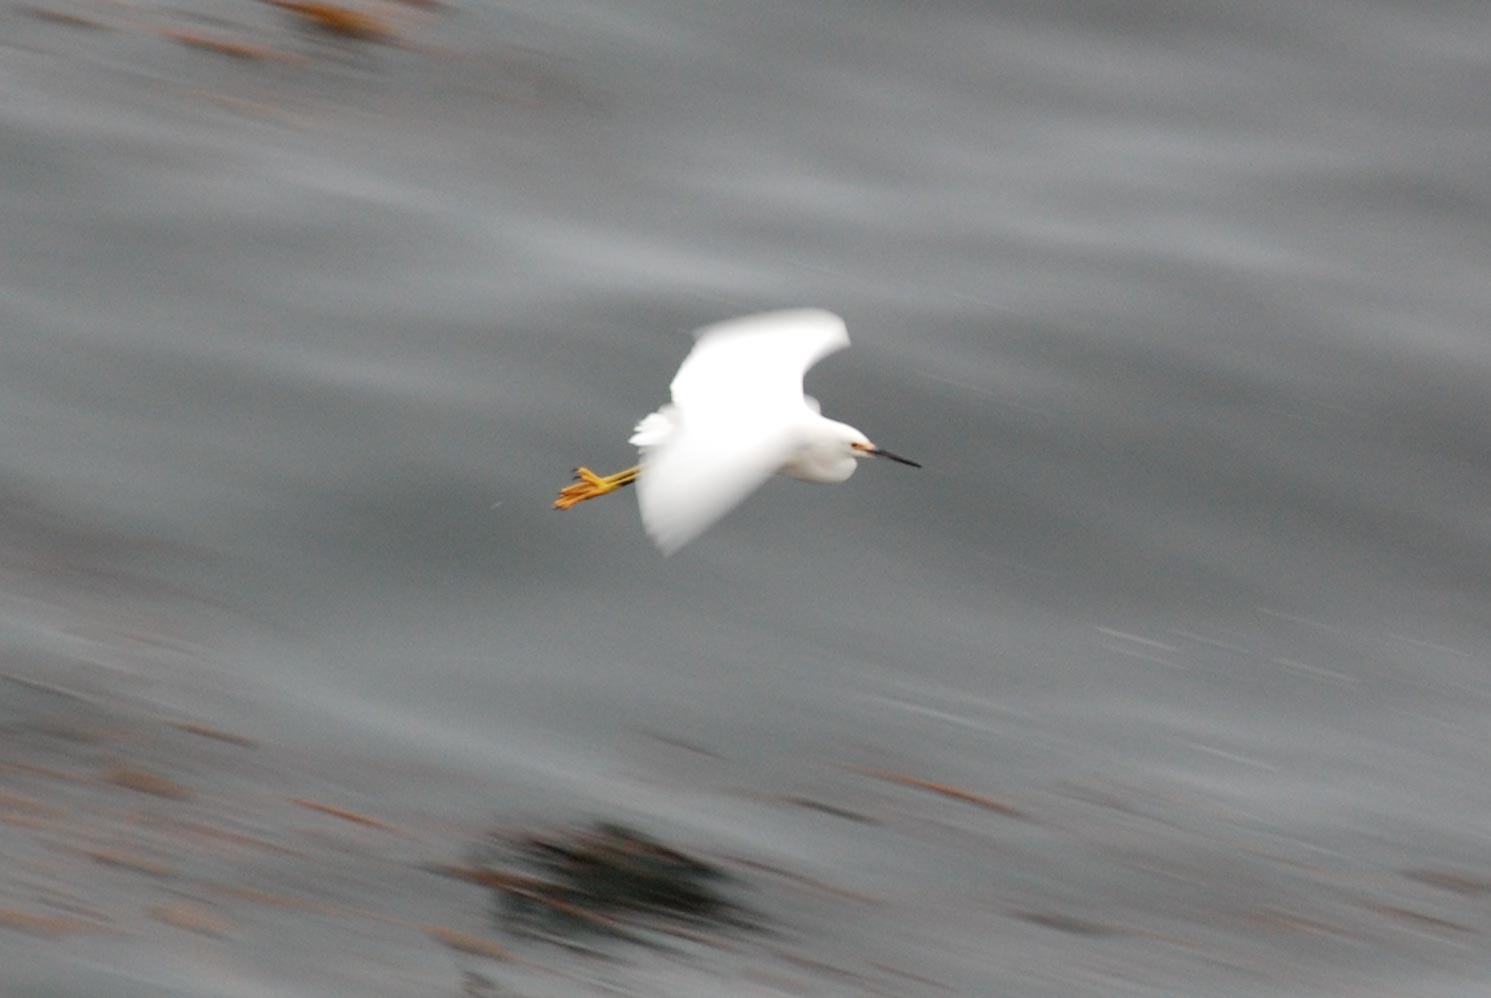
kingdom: Animalia
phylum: Chordata
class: Aves
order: Pelecaniformes
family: Ardeidae
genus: Egretta
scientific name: Egretta thula
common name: Snowy egret
